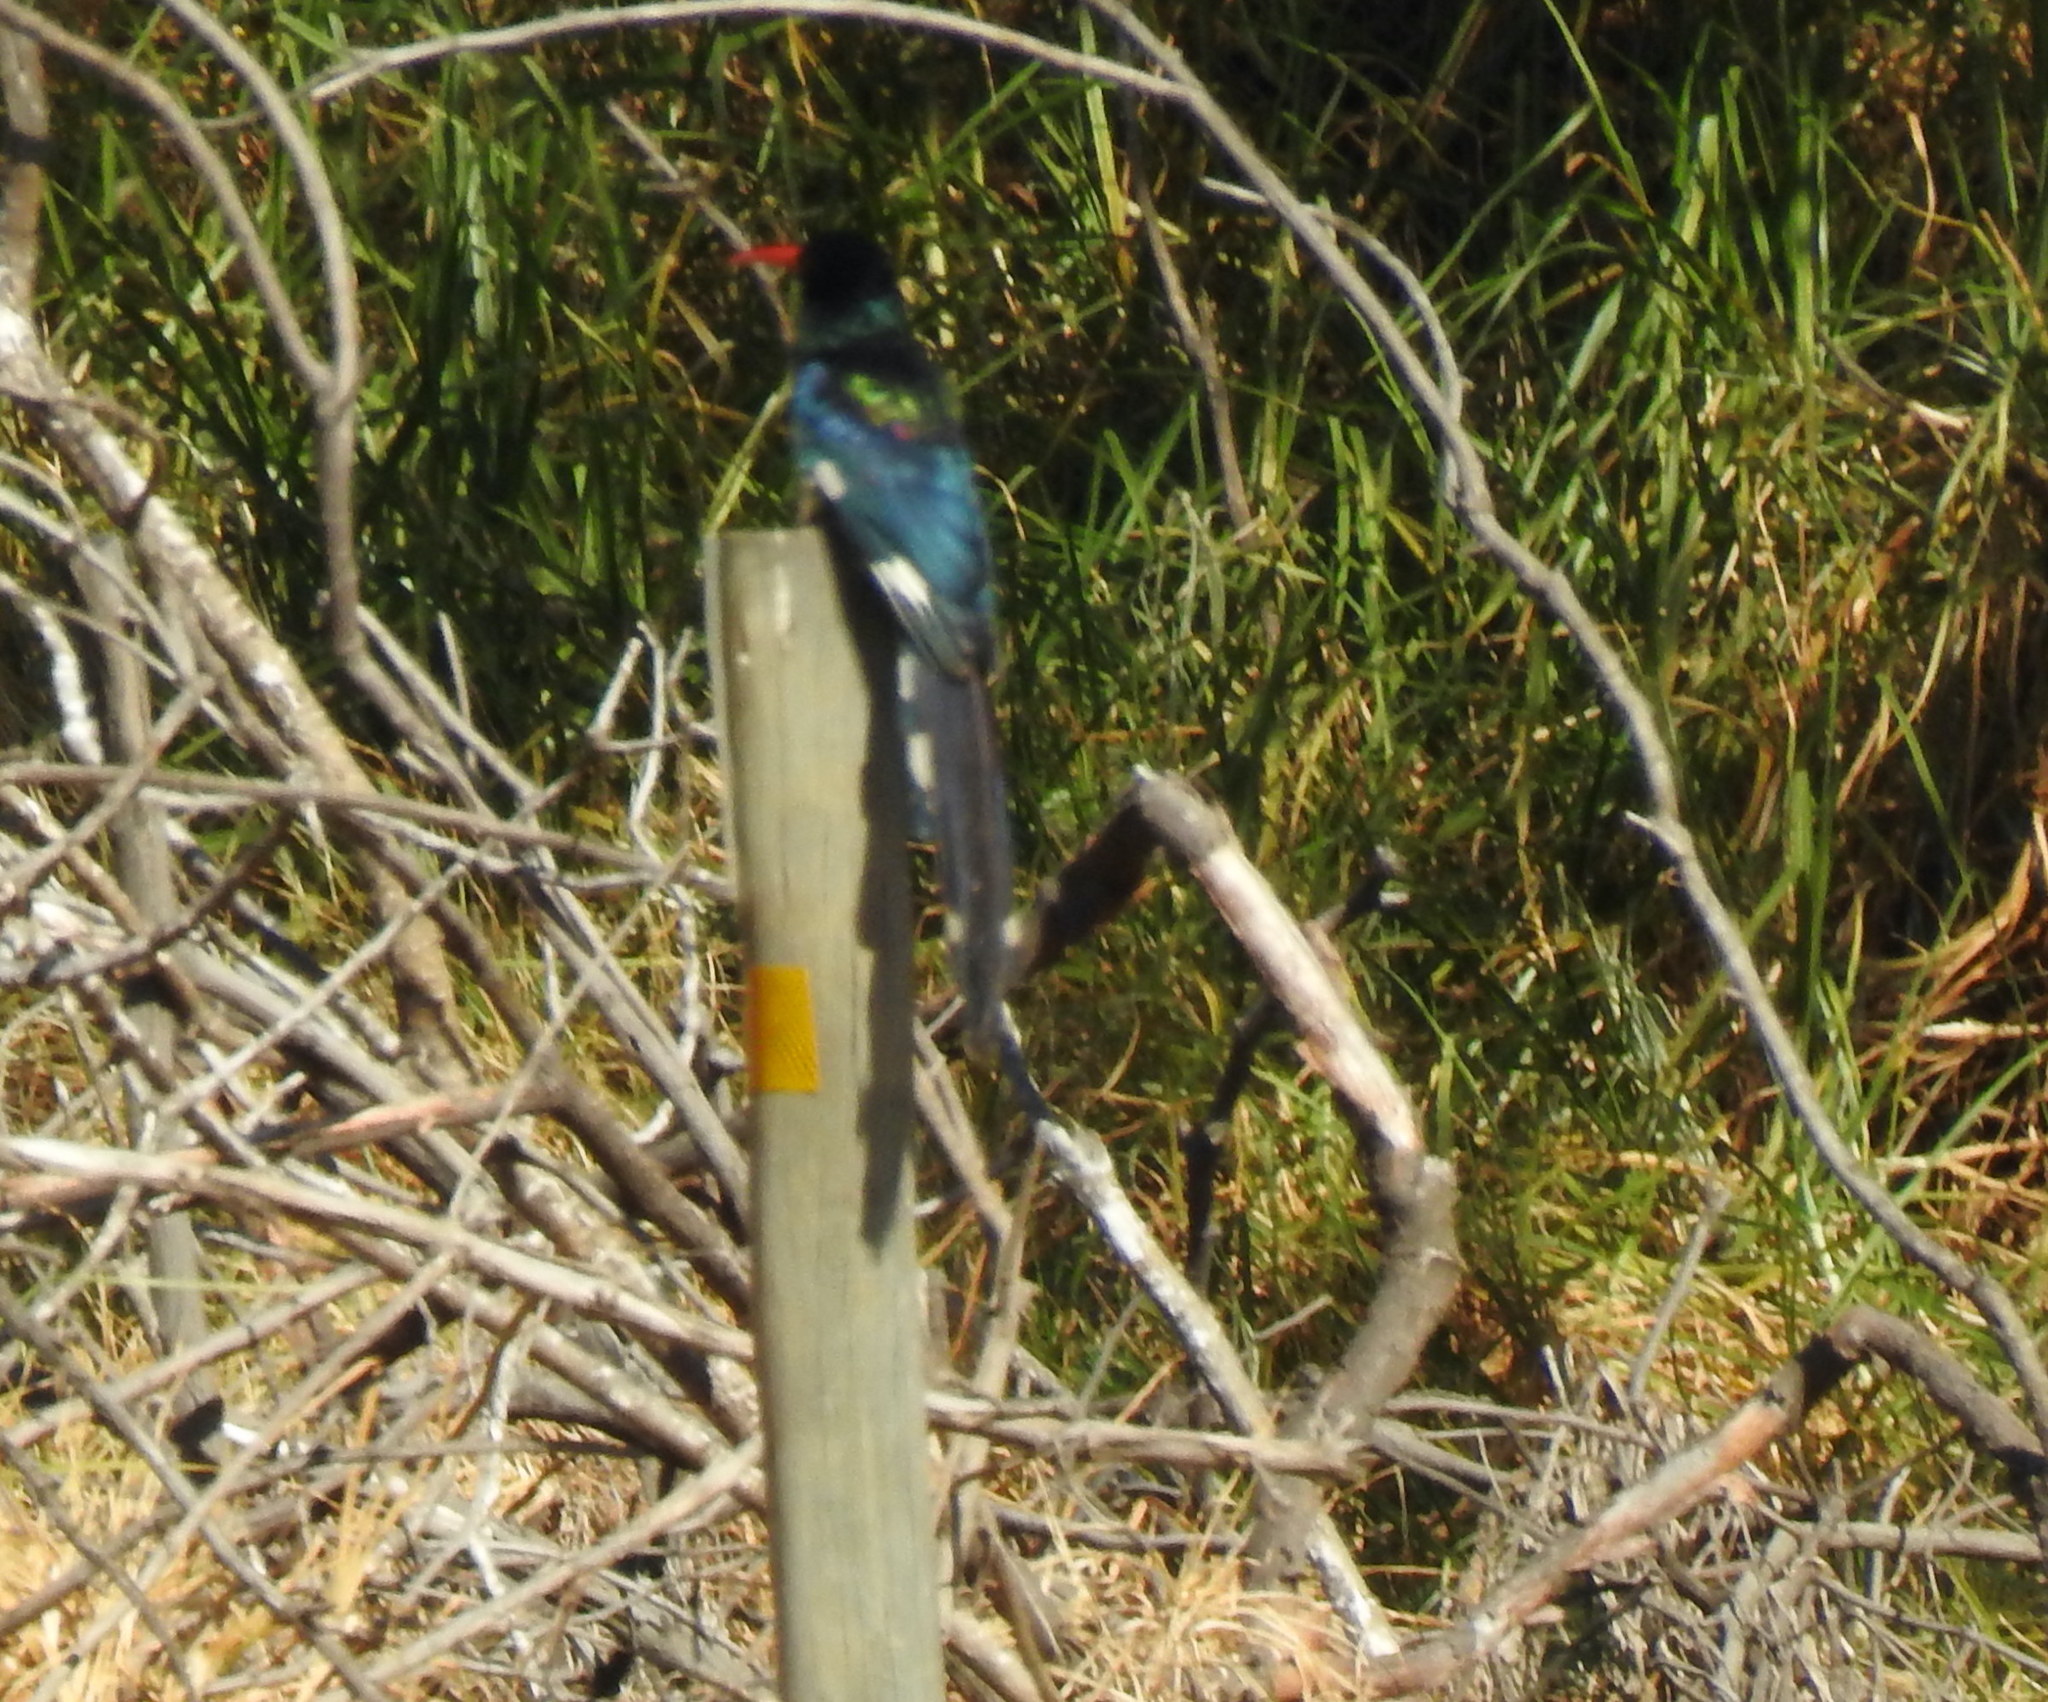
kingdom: Animalia
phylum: Chordata
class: Aves
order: Bucerotiformes
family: Phoeniculidae
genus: Phoeniculus
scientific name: Phoeniculus purpureus
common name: Green woodhoopoe
